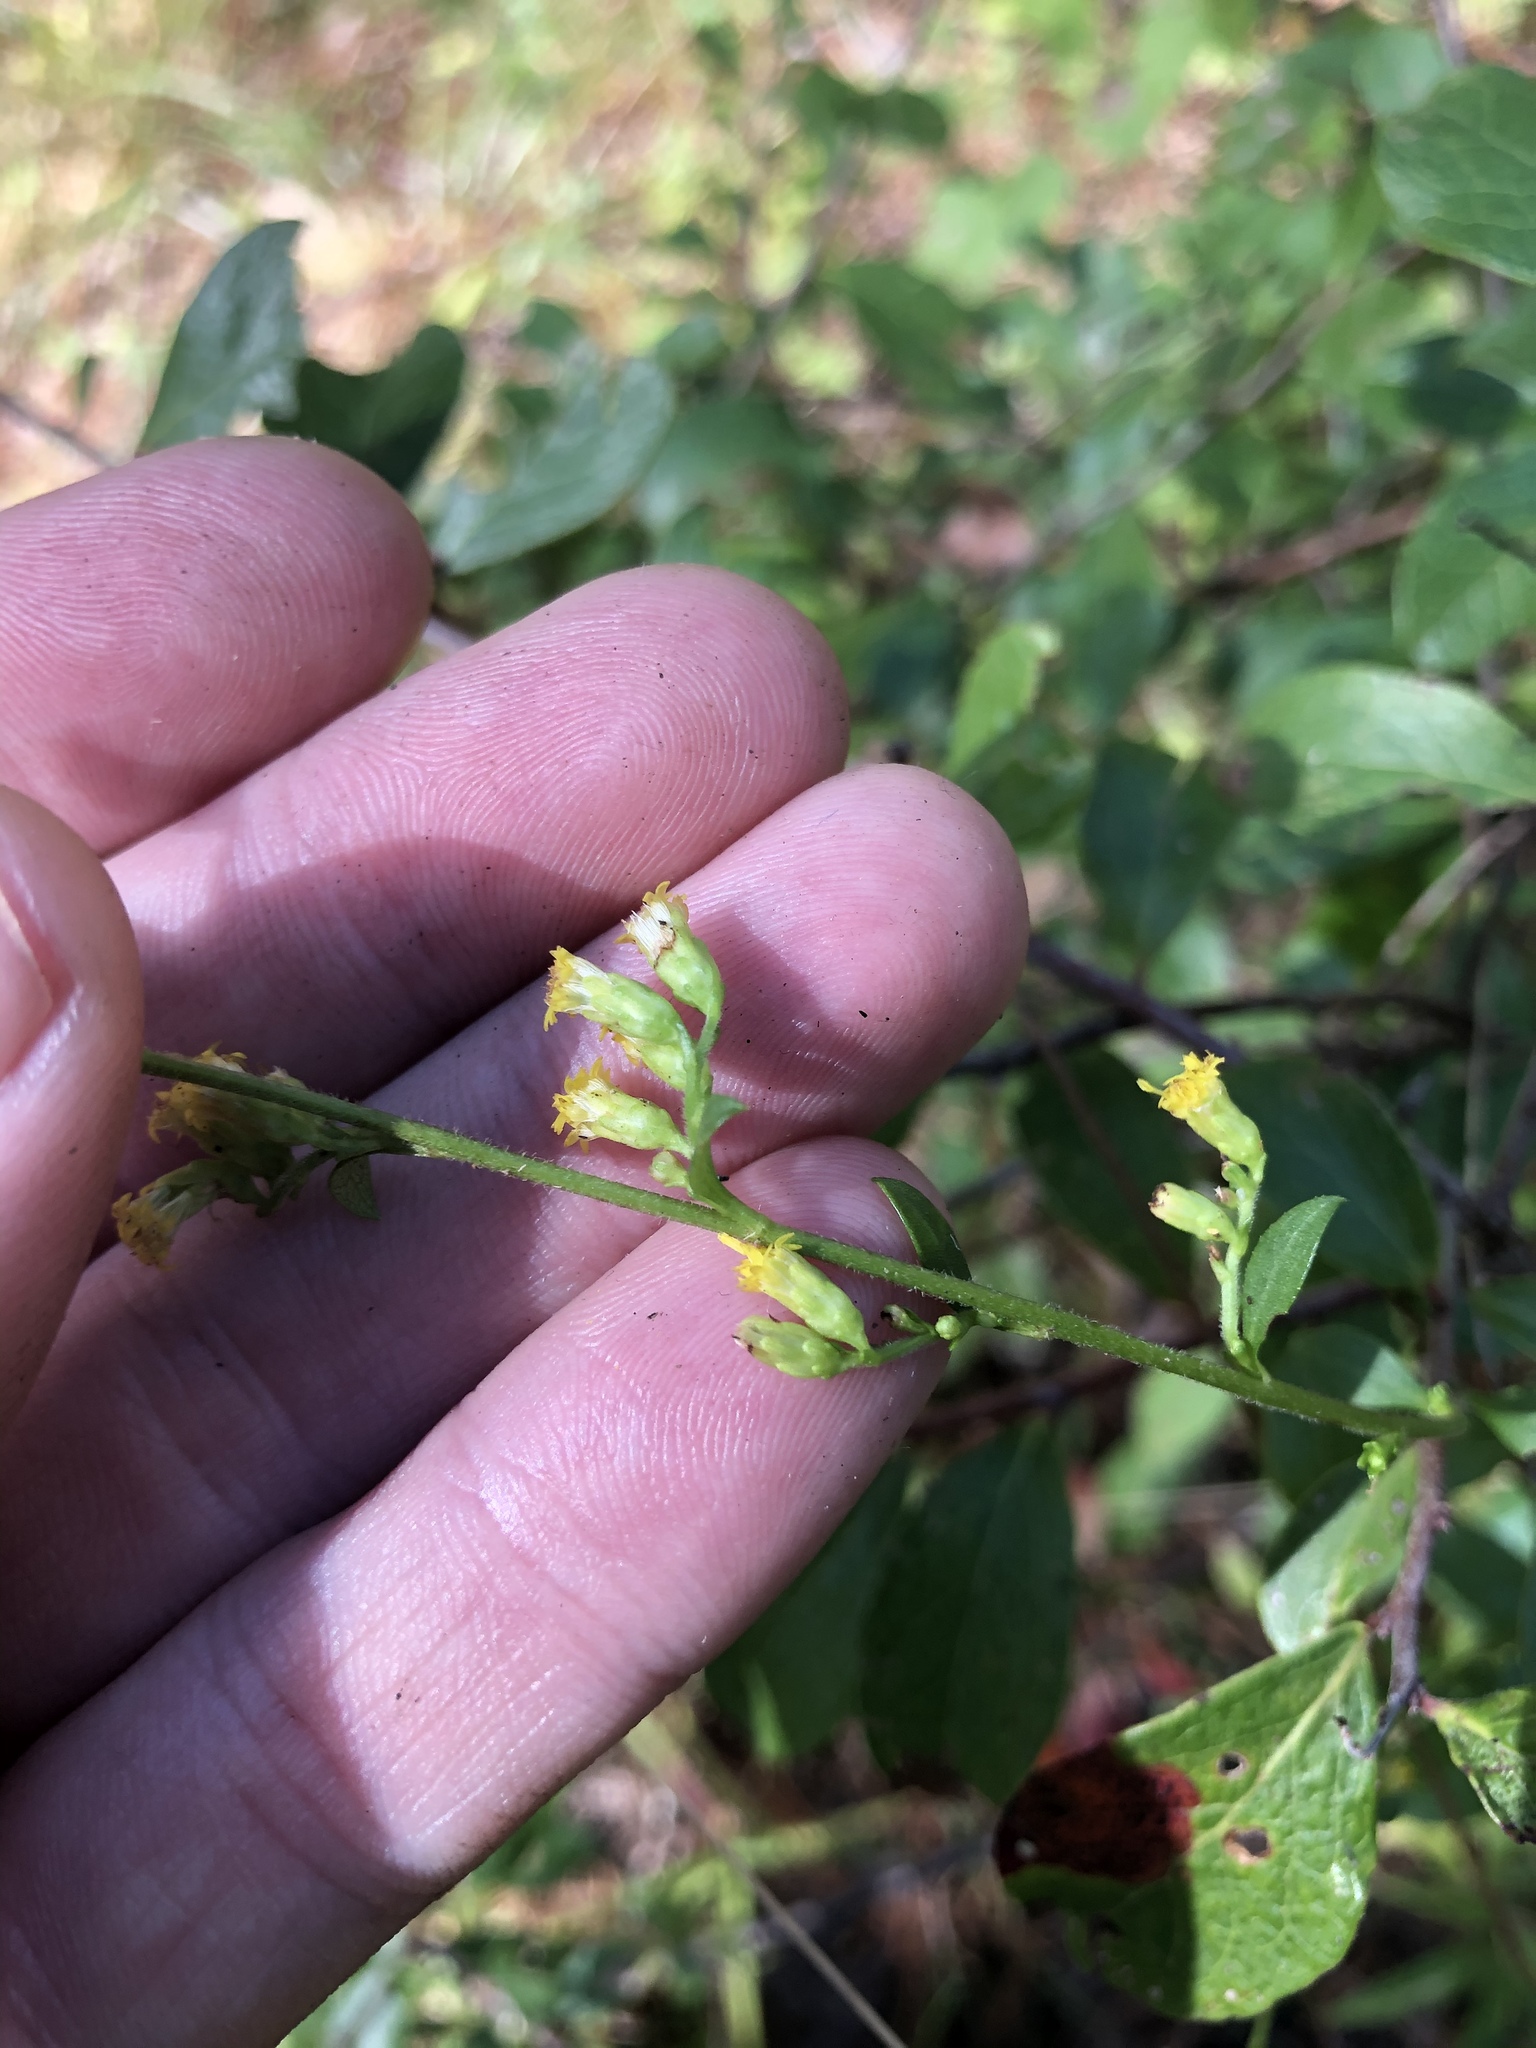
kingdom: Plantae
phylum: Tracheophyta
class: Magnoliopsida
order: Asterales
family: Asteraceae
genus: Solidago
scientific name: Solidago arguta
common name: Atlantic goldenrod
